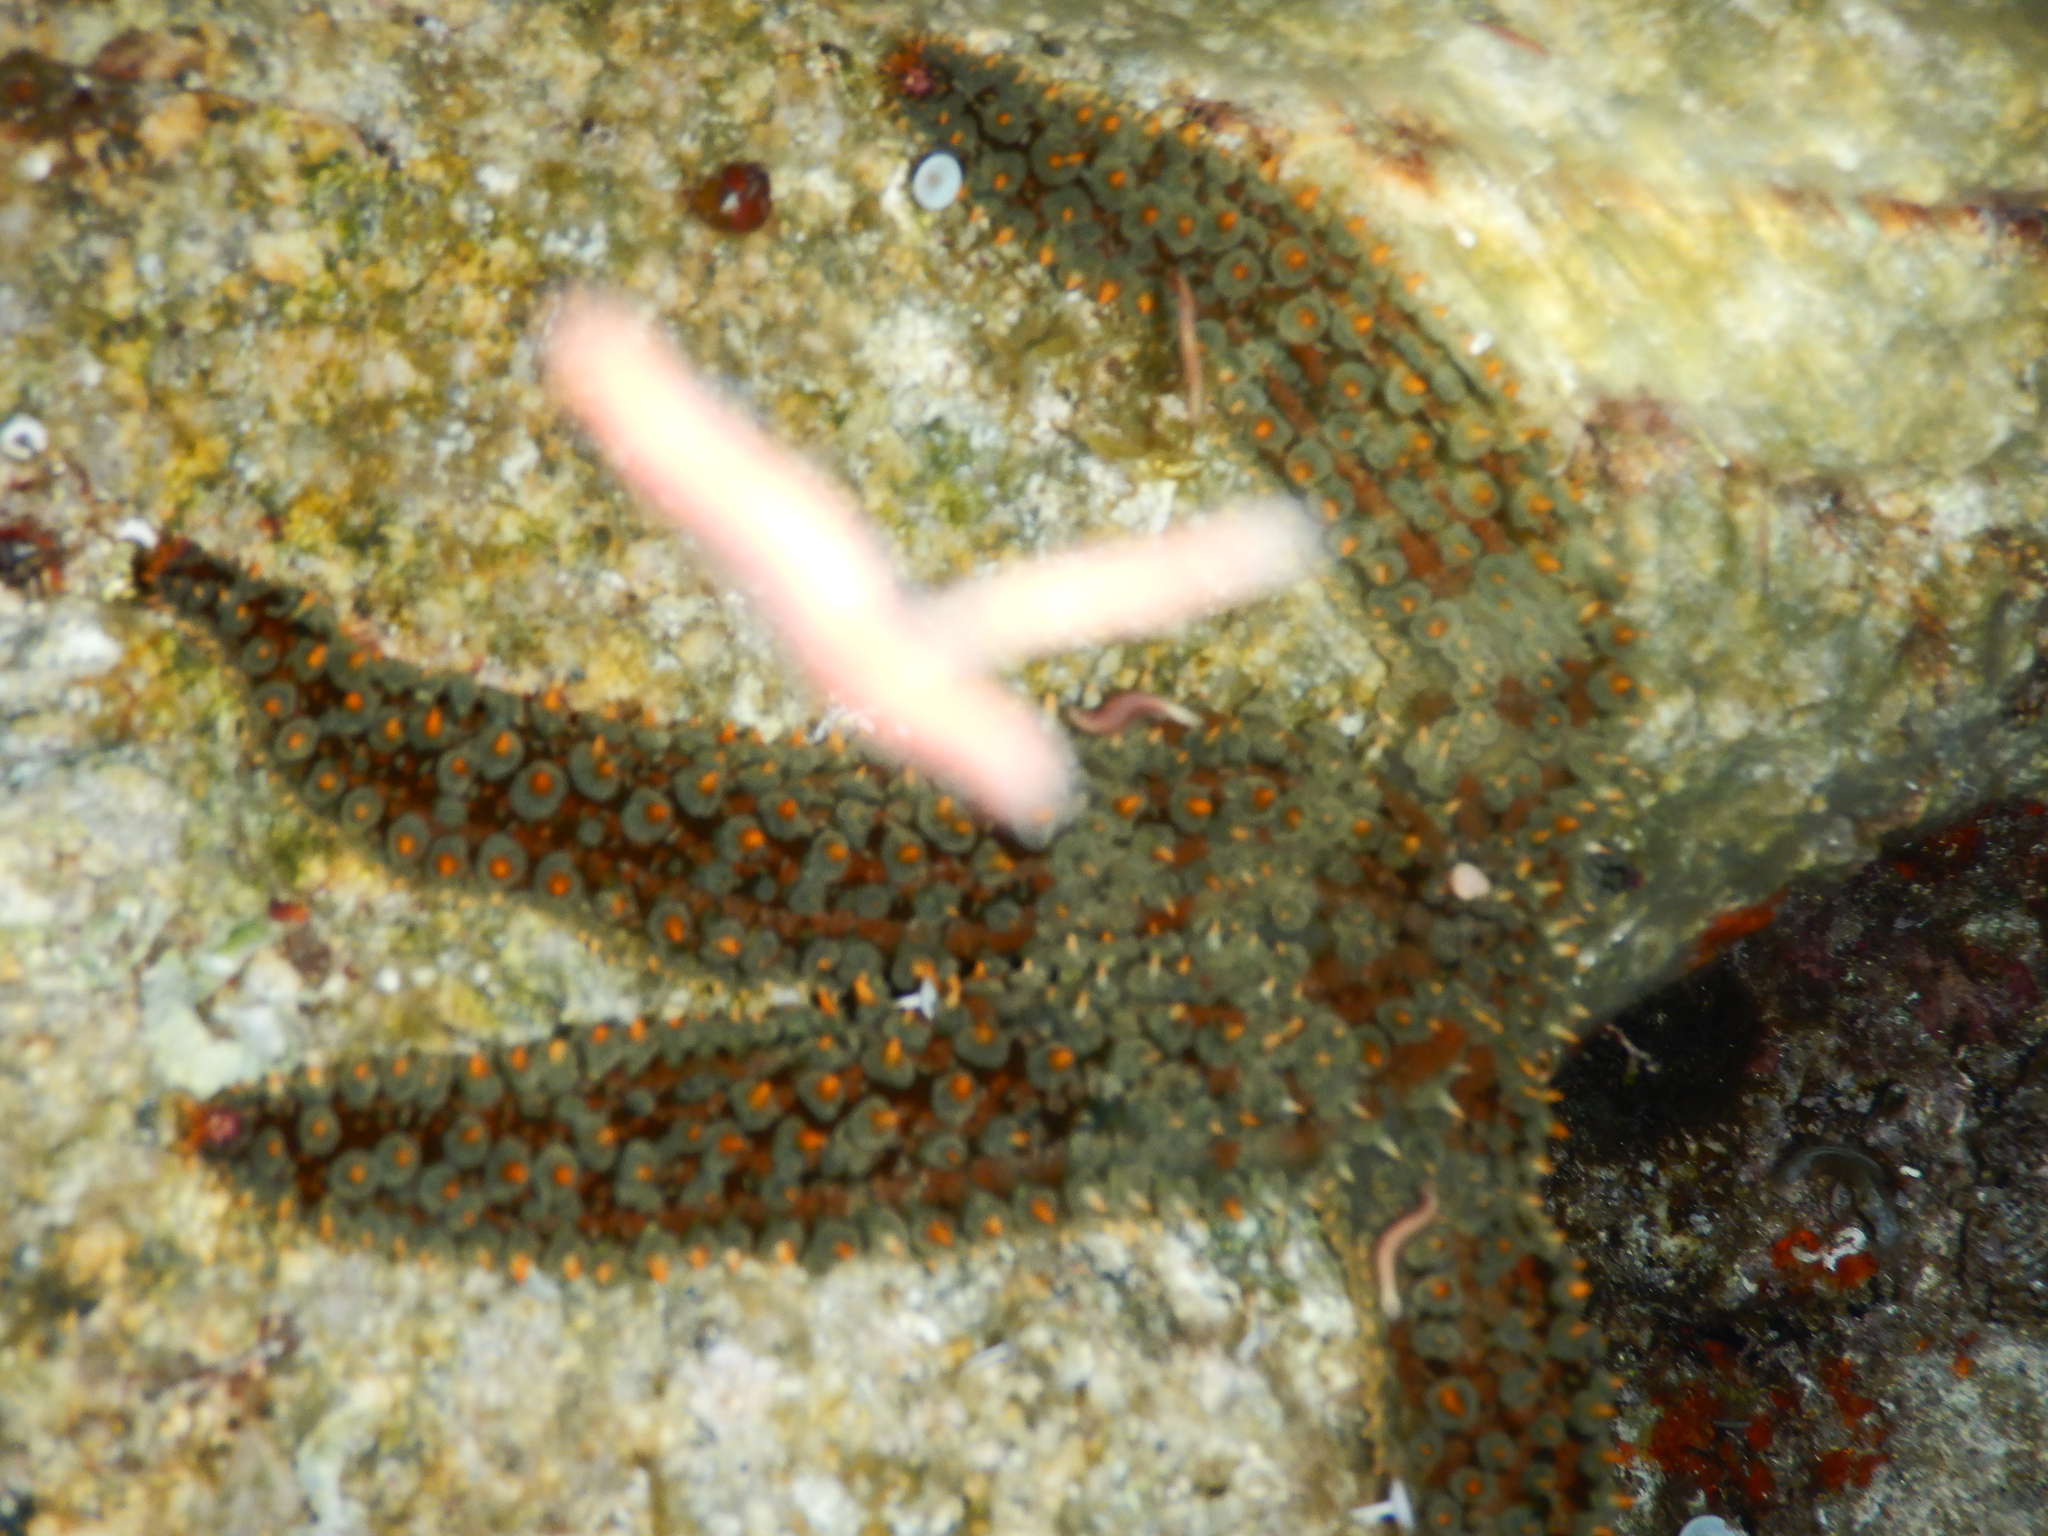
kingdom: Animalia
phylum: Echinodermata
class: Asteroidea
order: Forcipulatida
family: Asteriidae
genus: Marthasterias
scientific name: Marthasterias glacialis
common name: Spiny starfish
